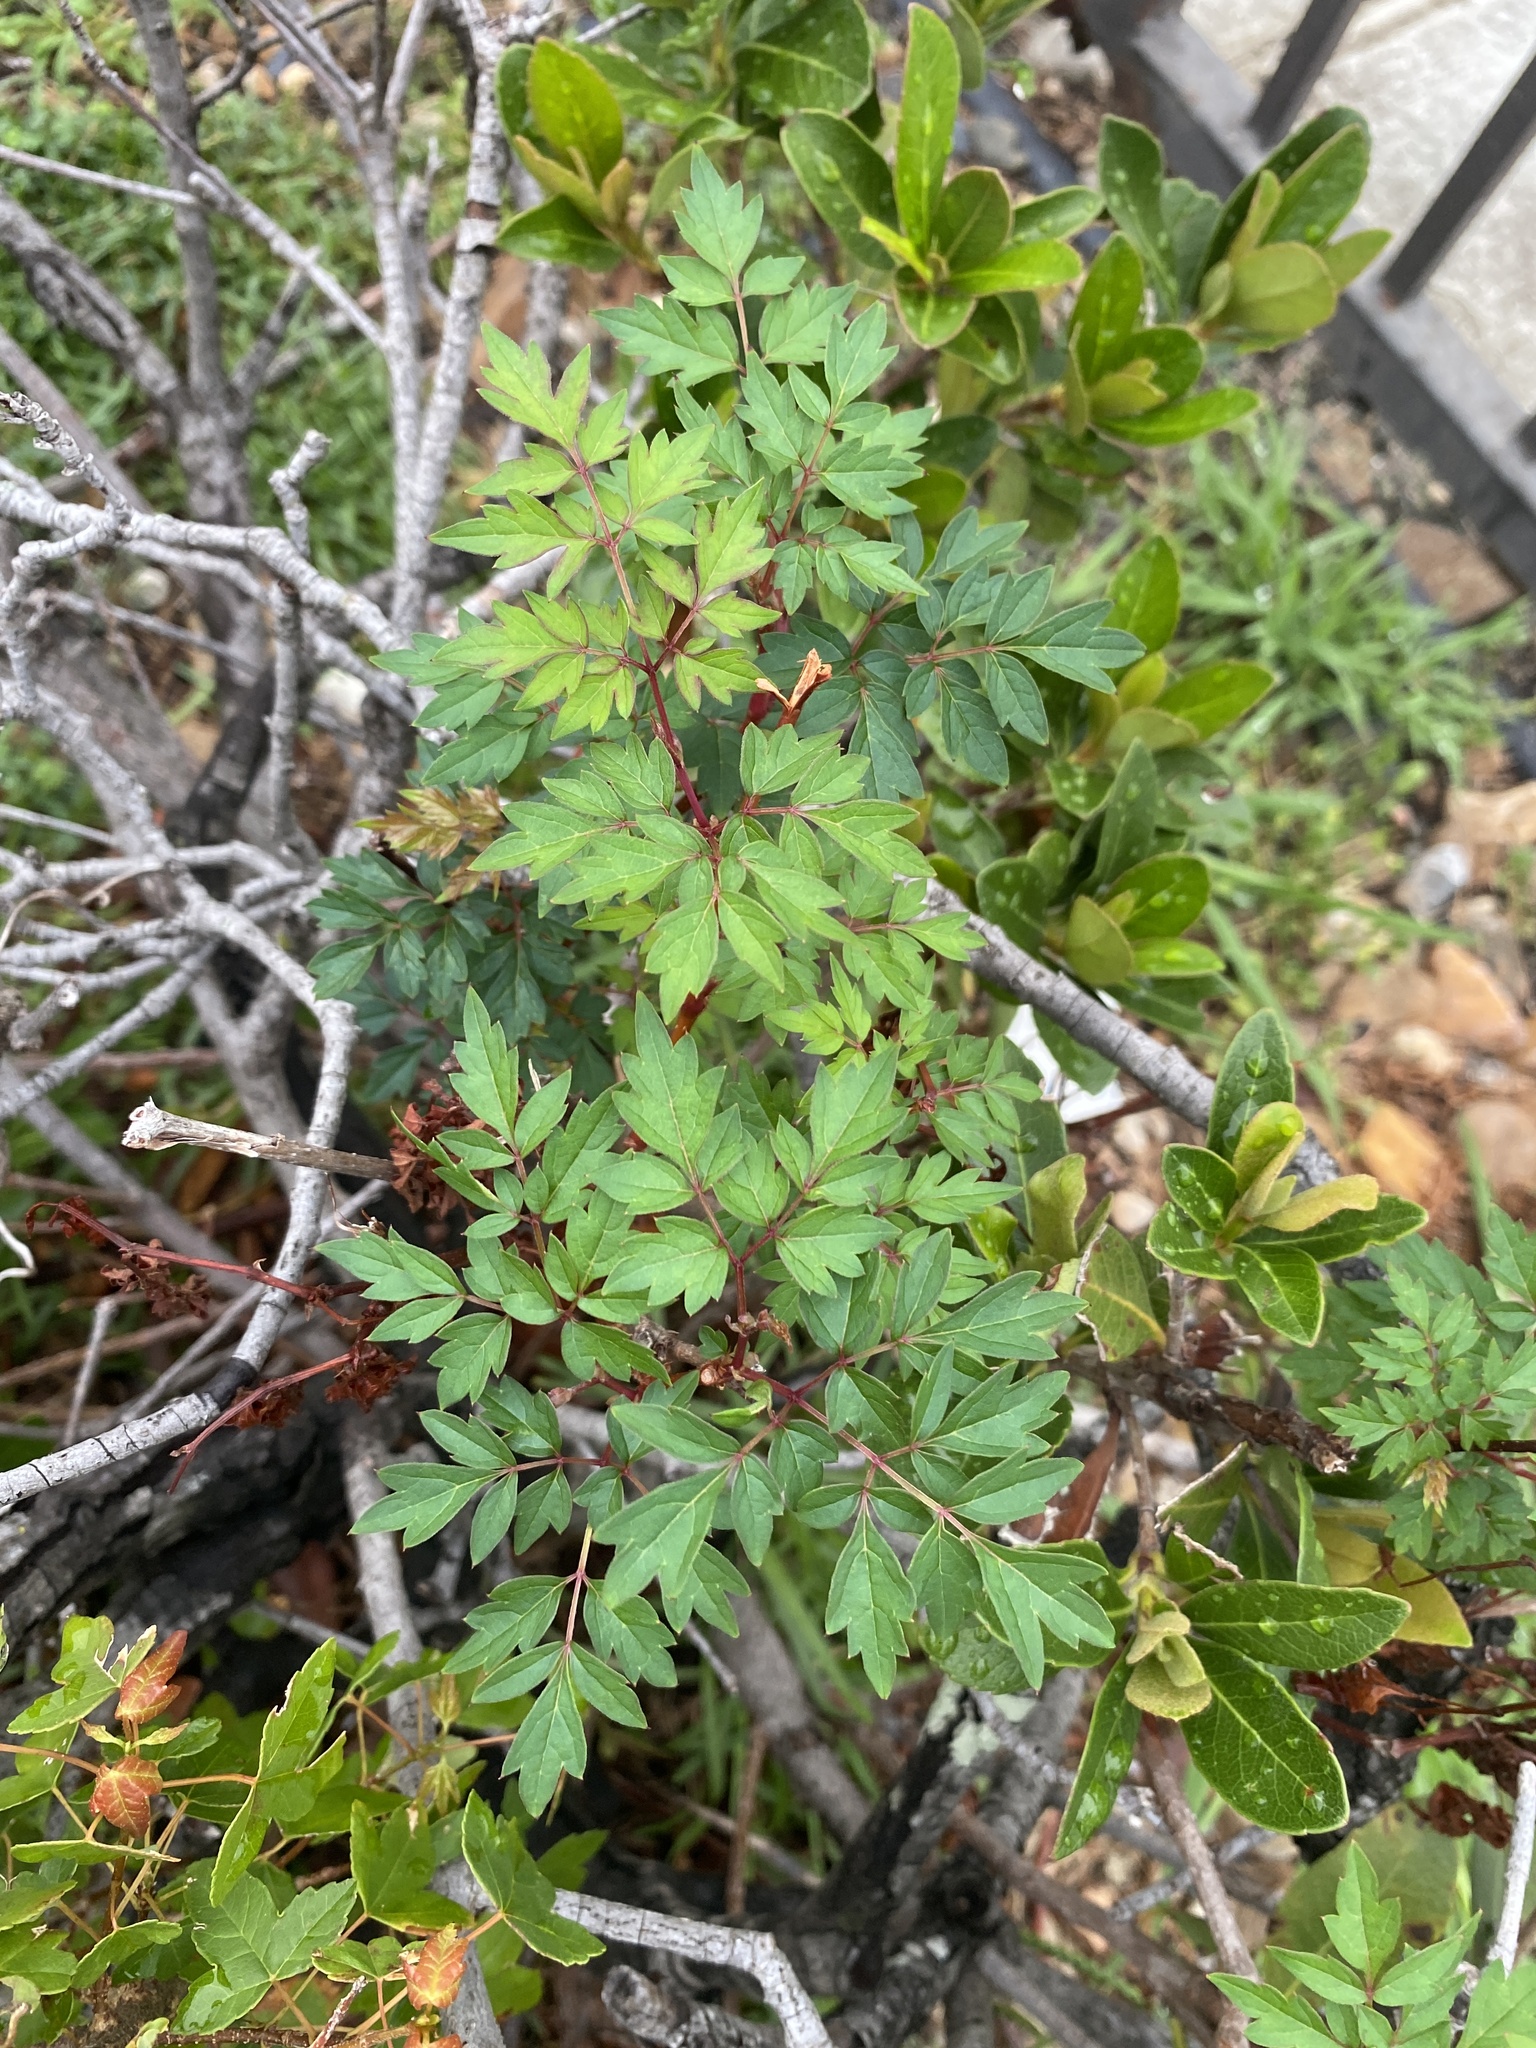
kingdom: Plantae
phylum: Tracheophyta
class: Magnoliopsida
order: Vitales
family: Vitaceae
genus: Nekemias
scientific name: Nekemias arborea
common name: Peppervine
